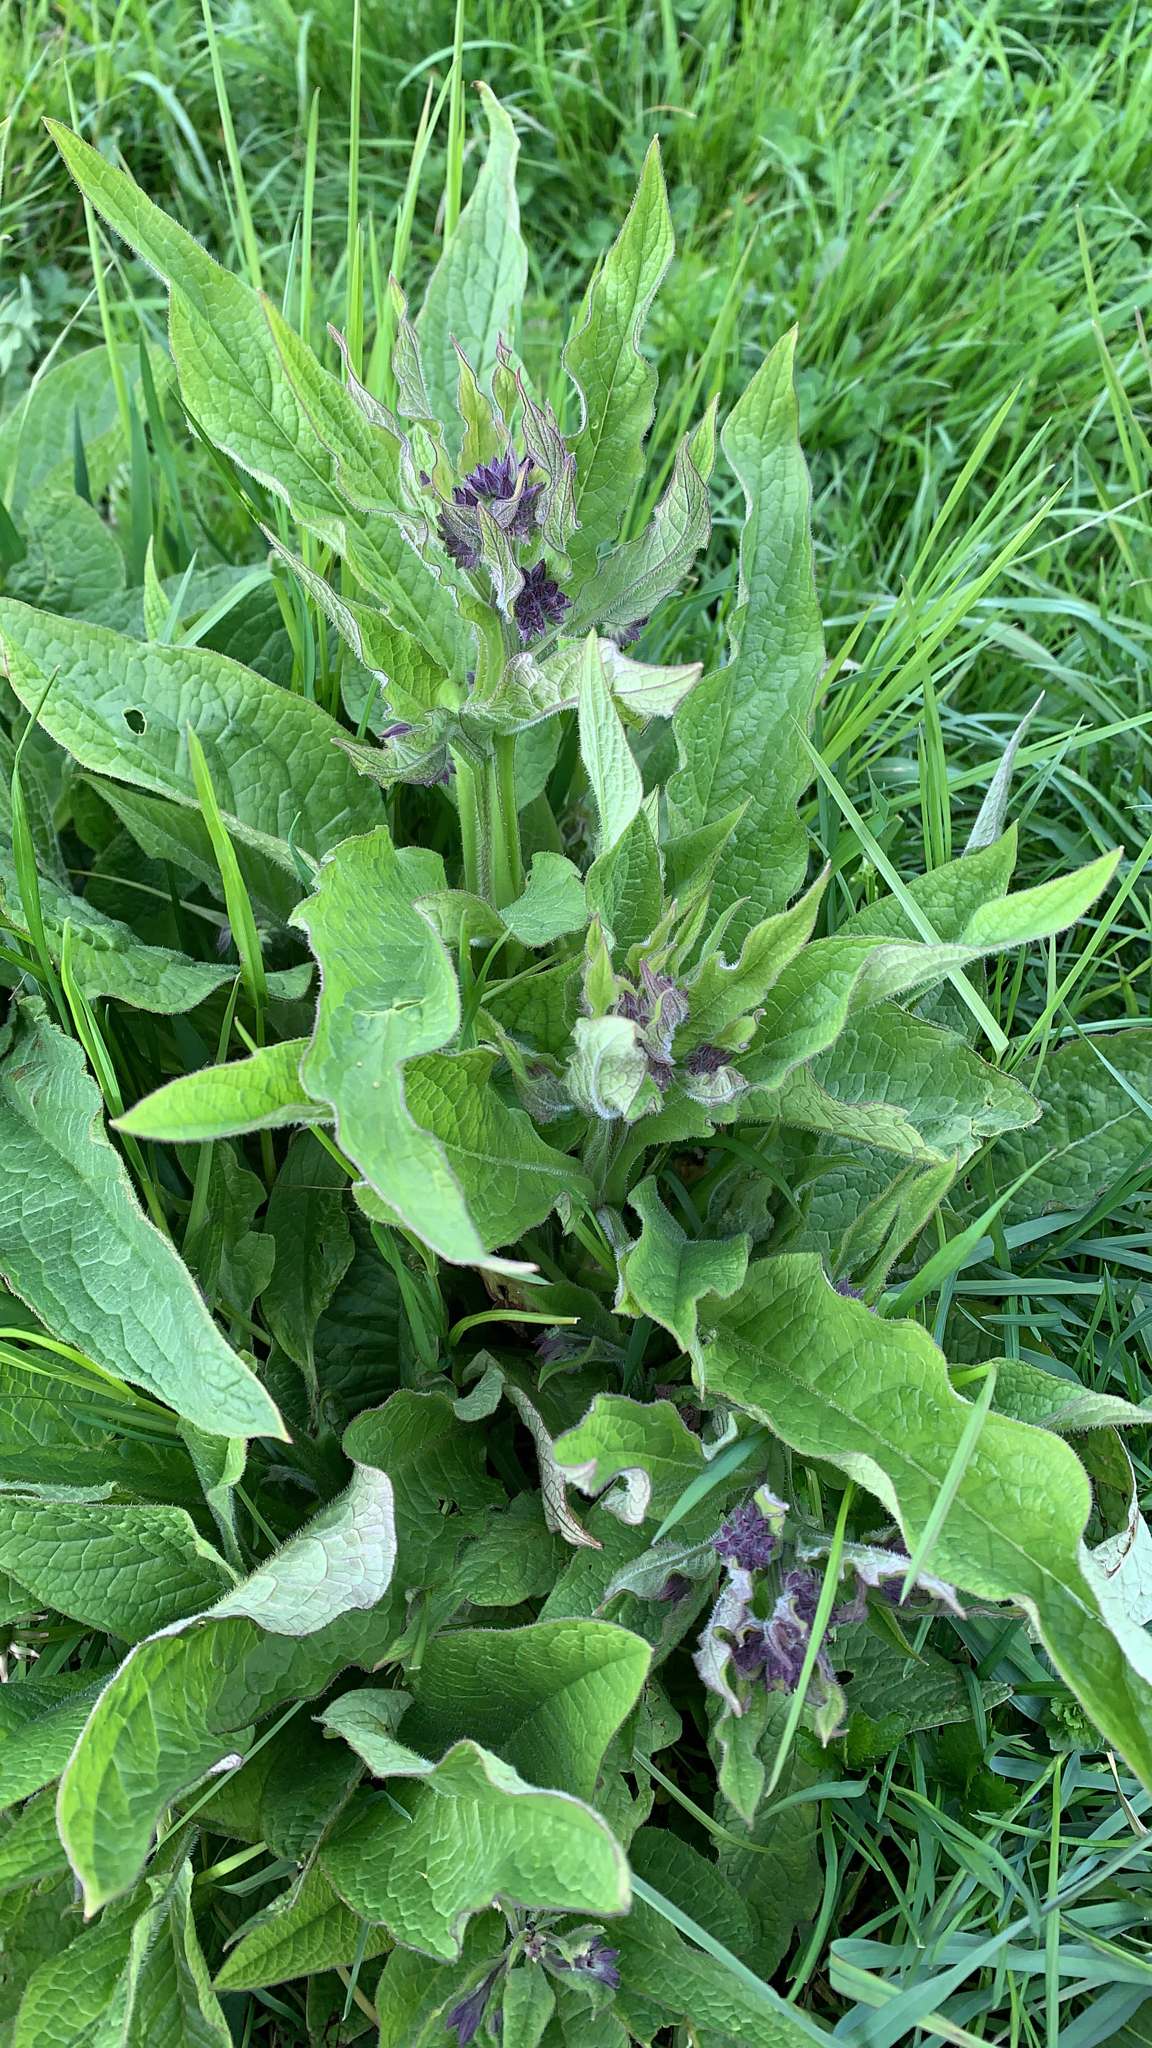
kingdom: Plantae
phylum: Tracheophyta
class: Magnoliopsida
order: Boraginales
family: Boraginaceae
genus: Symphytum
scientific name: Symphytum officinale
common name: Common comfrey
